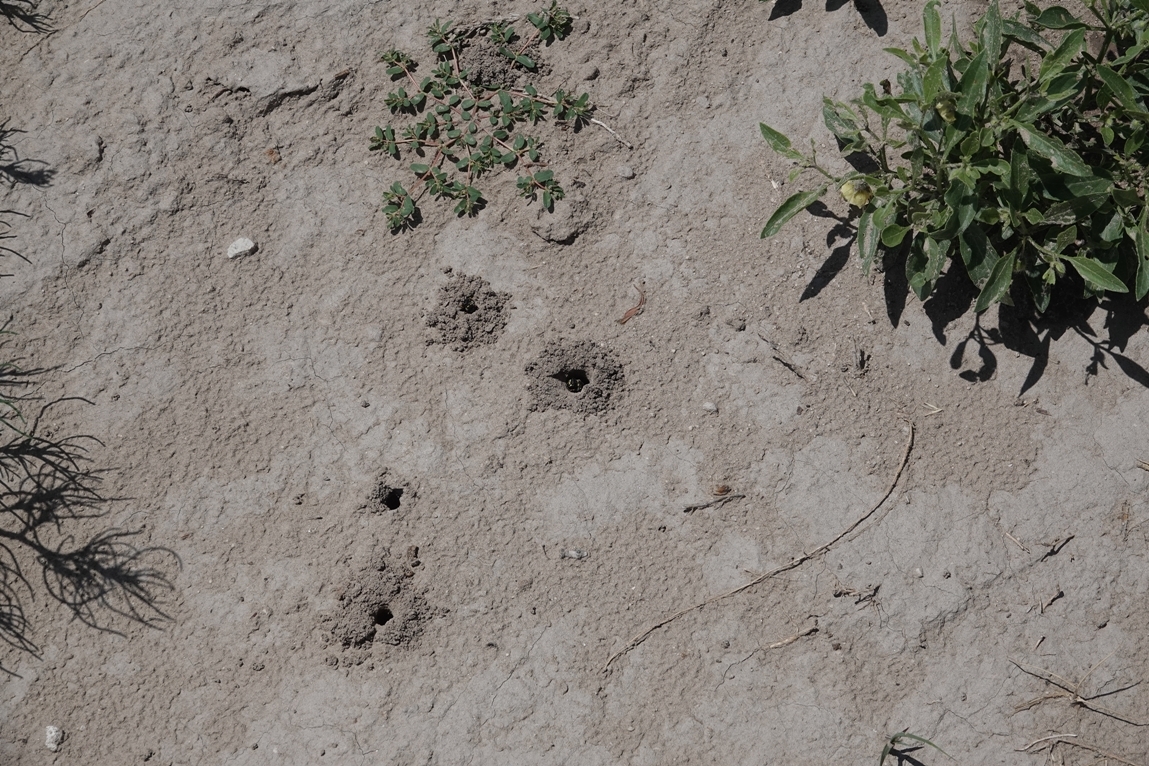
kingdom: Animalia
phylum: Arthropoda
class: Insecta
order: Hymenoptera
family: Crabronidae
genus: Cerceris
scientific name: Cerceris fumipennis
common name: Smokey-winged beetle bandit wasp
